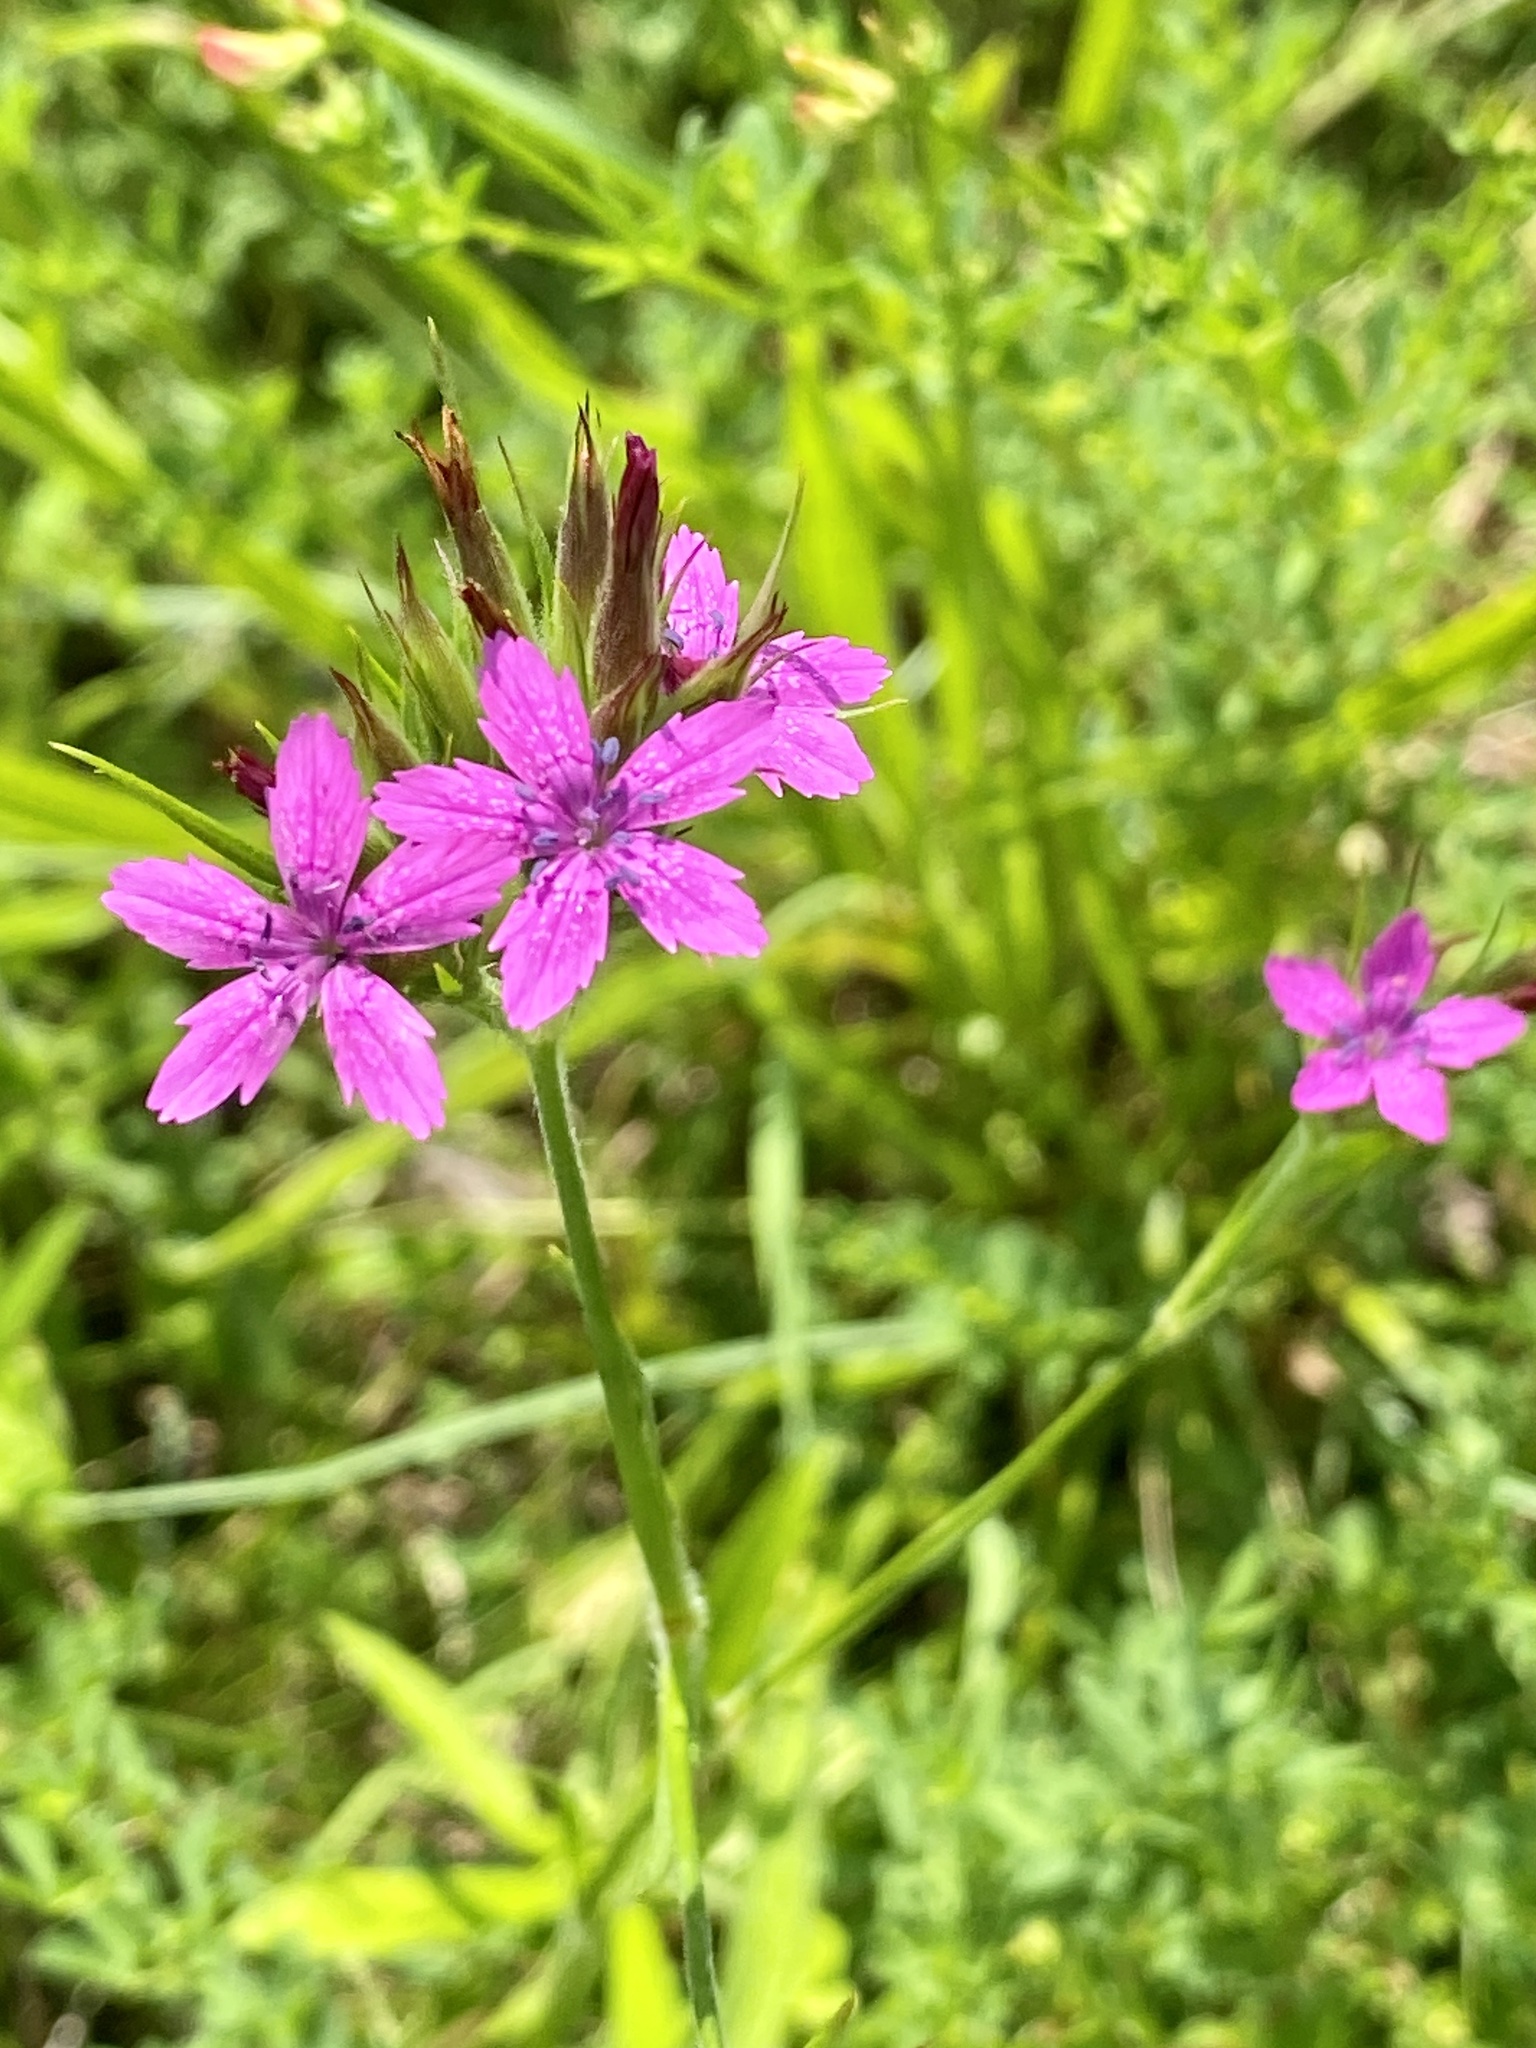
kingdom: Plantae
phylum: Tracheophyta
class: Magnoliopsida
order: Caryophyllales
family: Caryophyllaceae
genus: Dianthus
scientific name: Dianthus armeria
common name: Deptford pink
